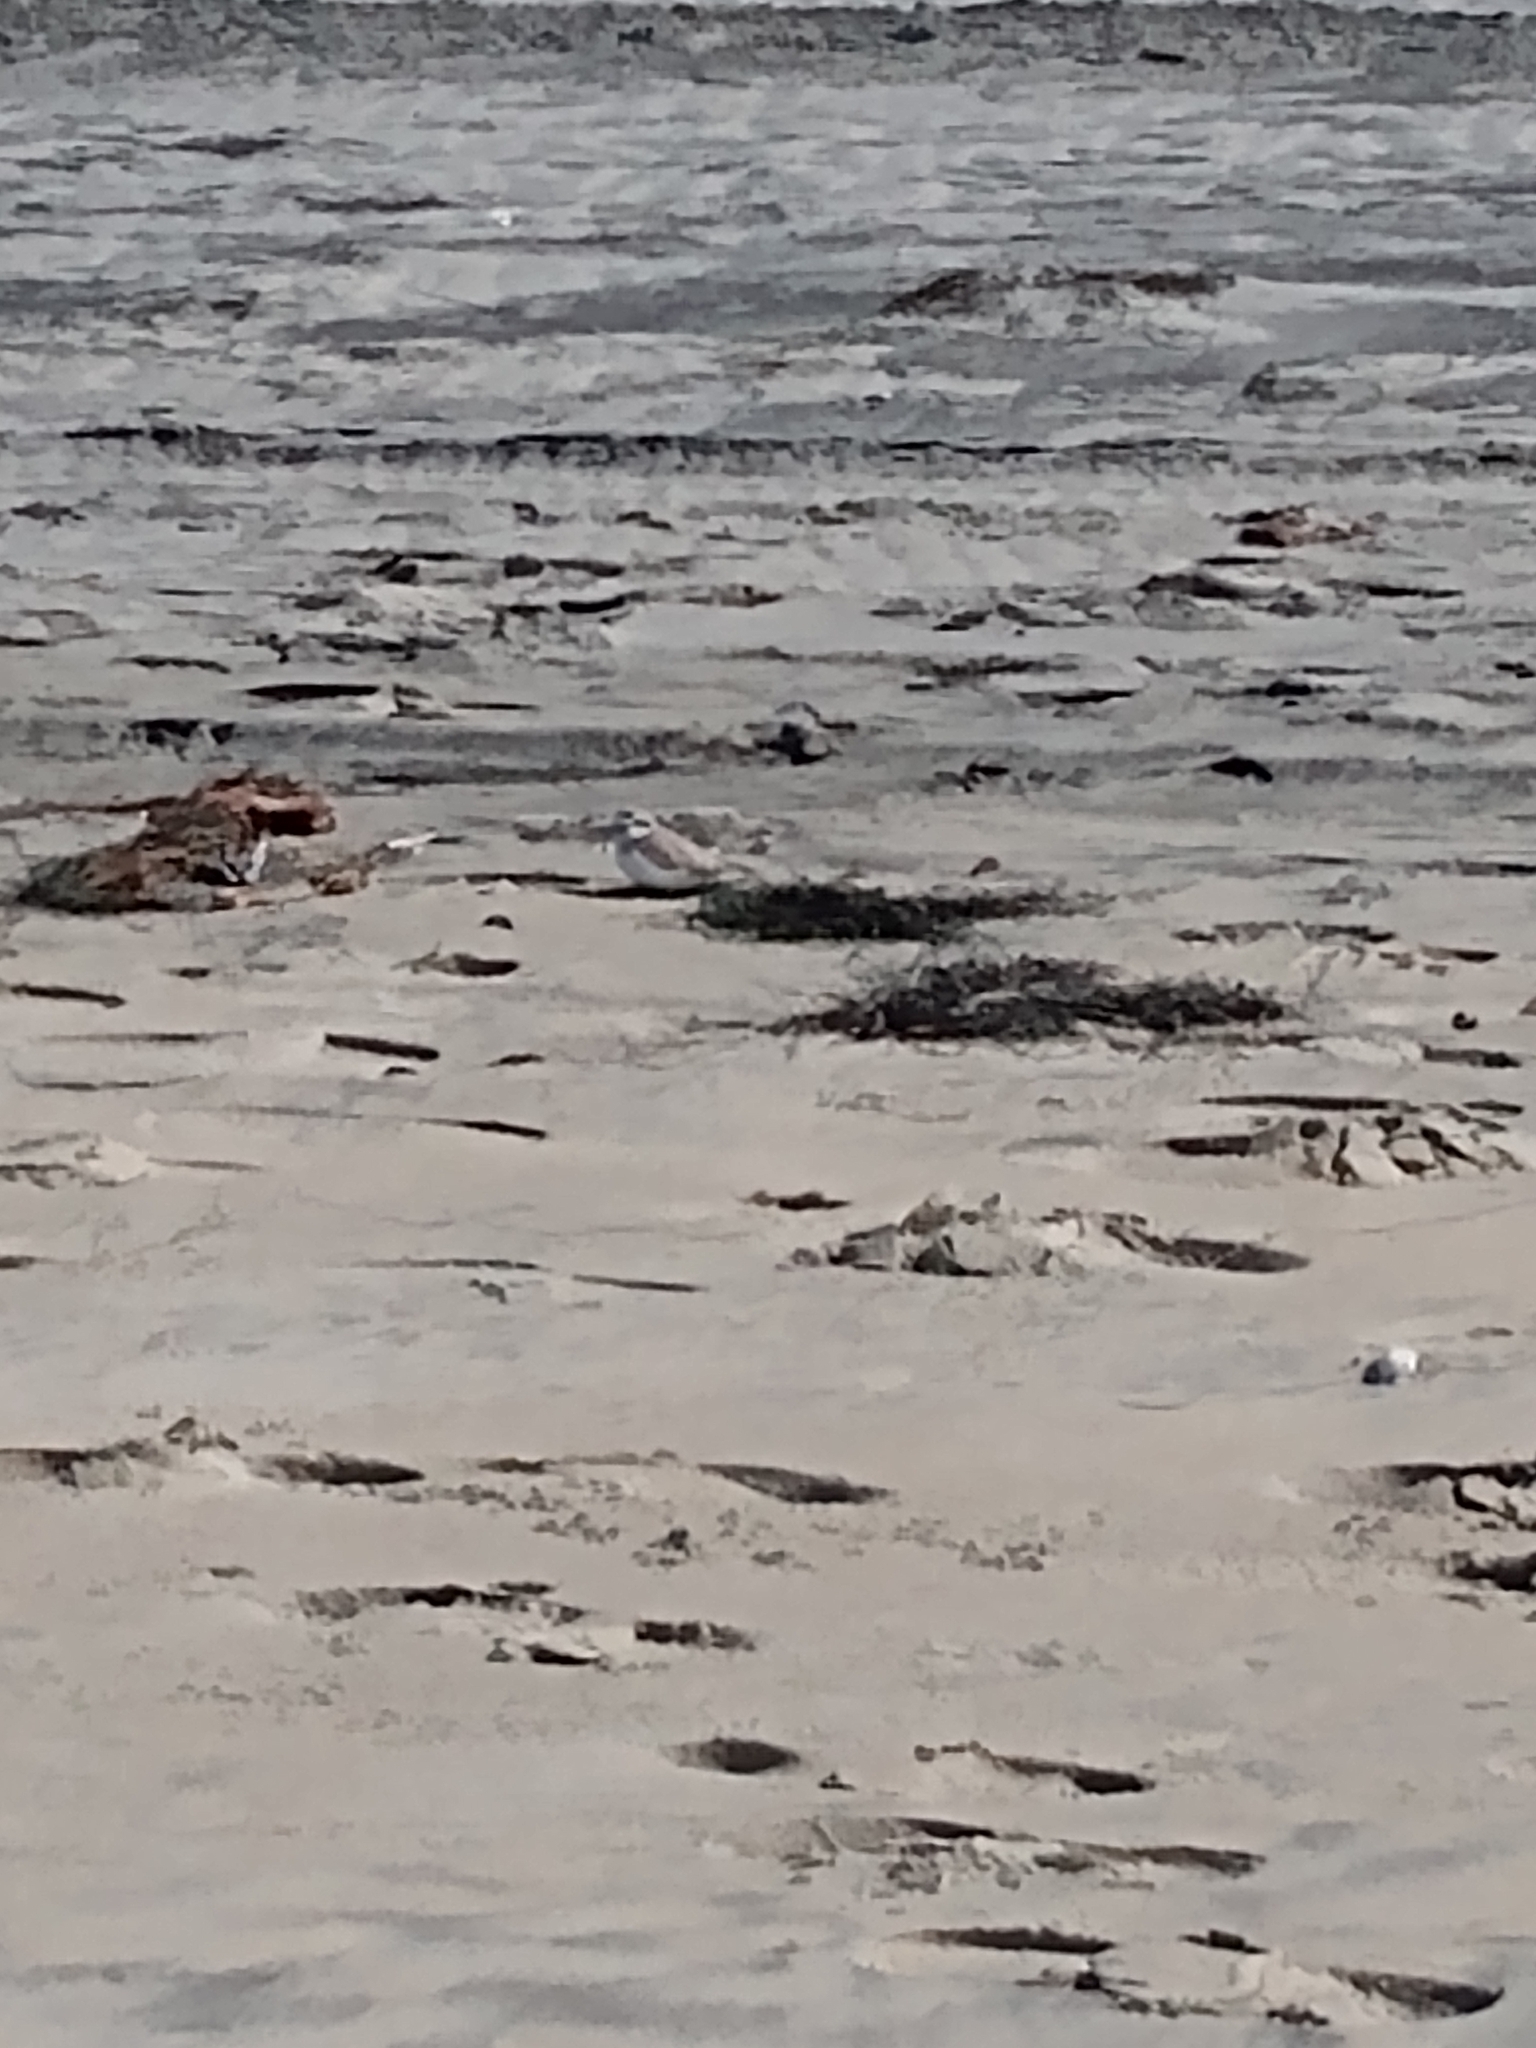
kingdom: Animalia
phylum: Chordata
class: Aves
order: Charadriiformes
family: Charadriidae
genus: Anarhynchus
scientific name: Anarhynchus
